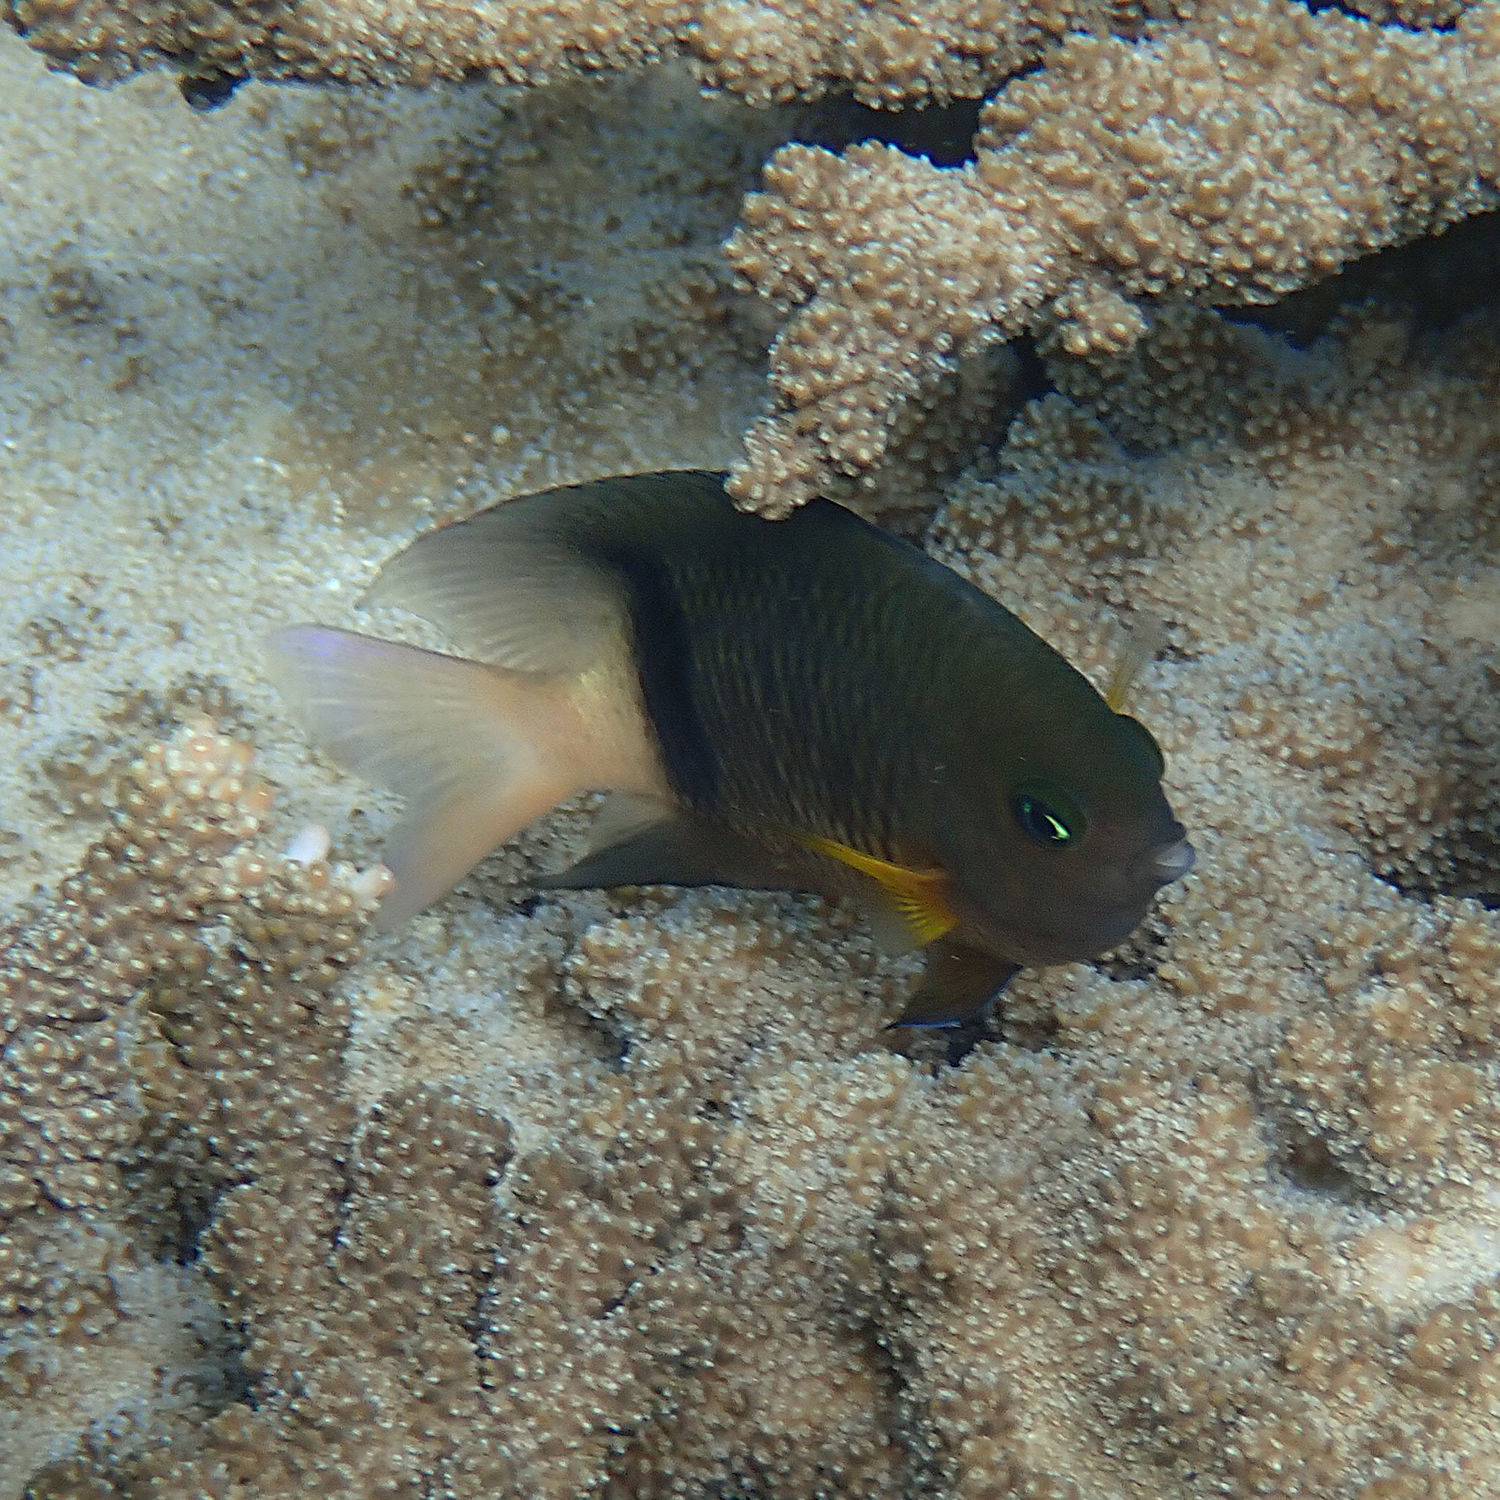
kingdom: Animalia
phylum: Chordata
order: Perciformes
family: Pomacentridae
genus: Plectroglyphidodon
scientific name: Plectroglyphidodon dickii
